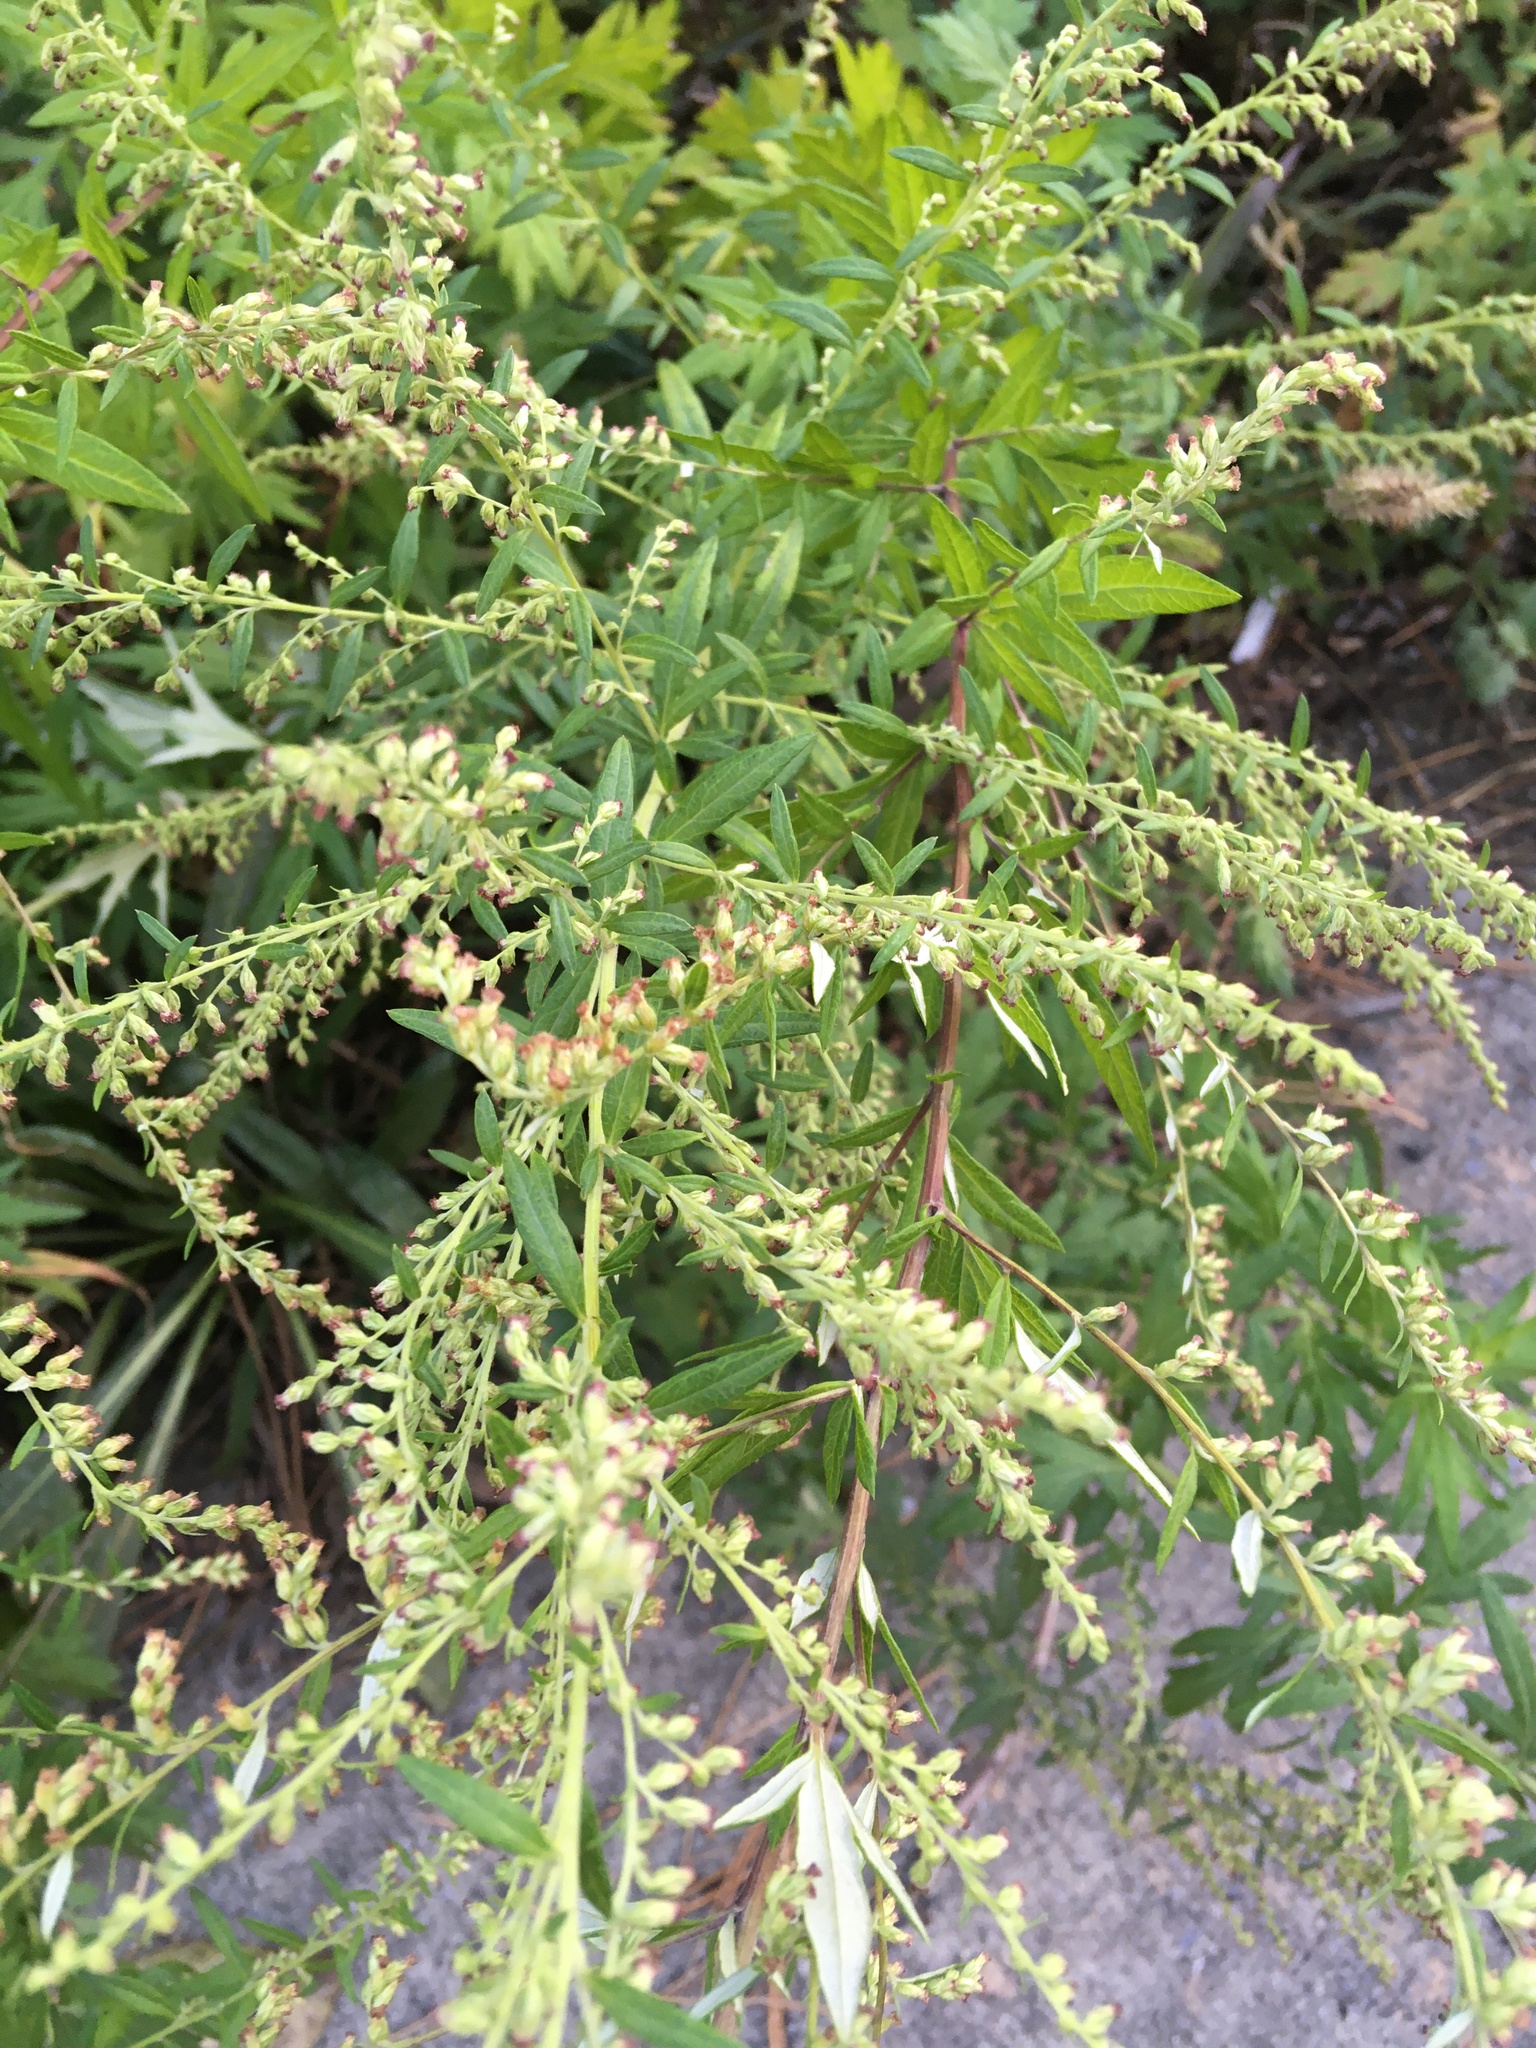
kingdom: Plantae
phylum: Tracheophyta
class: Magnoliopsida
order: Asterales
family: Asteraceae
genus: Artemisia
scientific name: Artemisia vulgaris
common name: Mugwort
